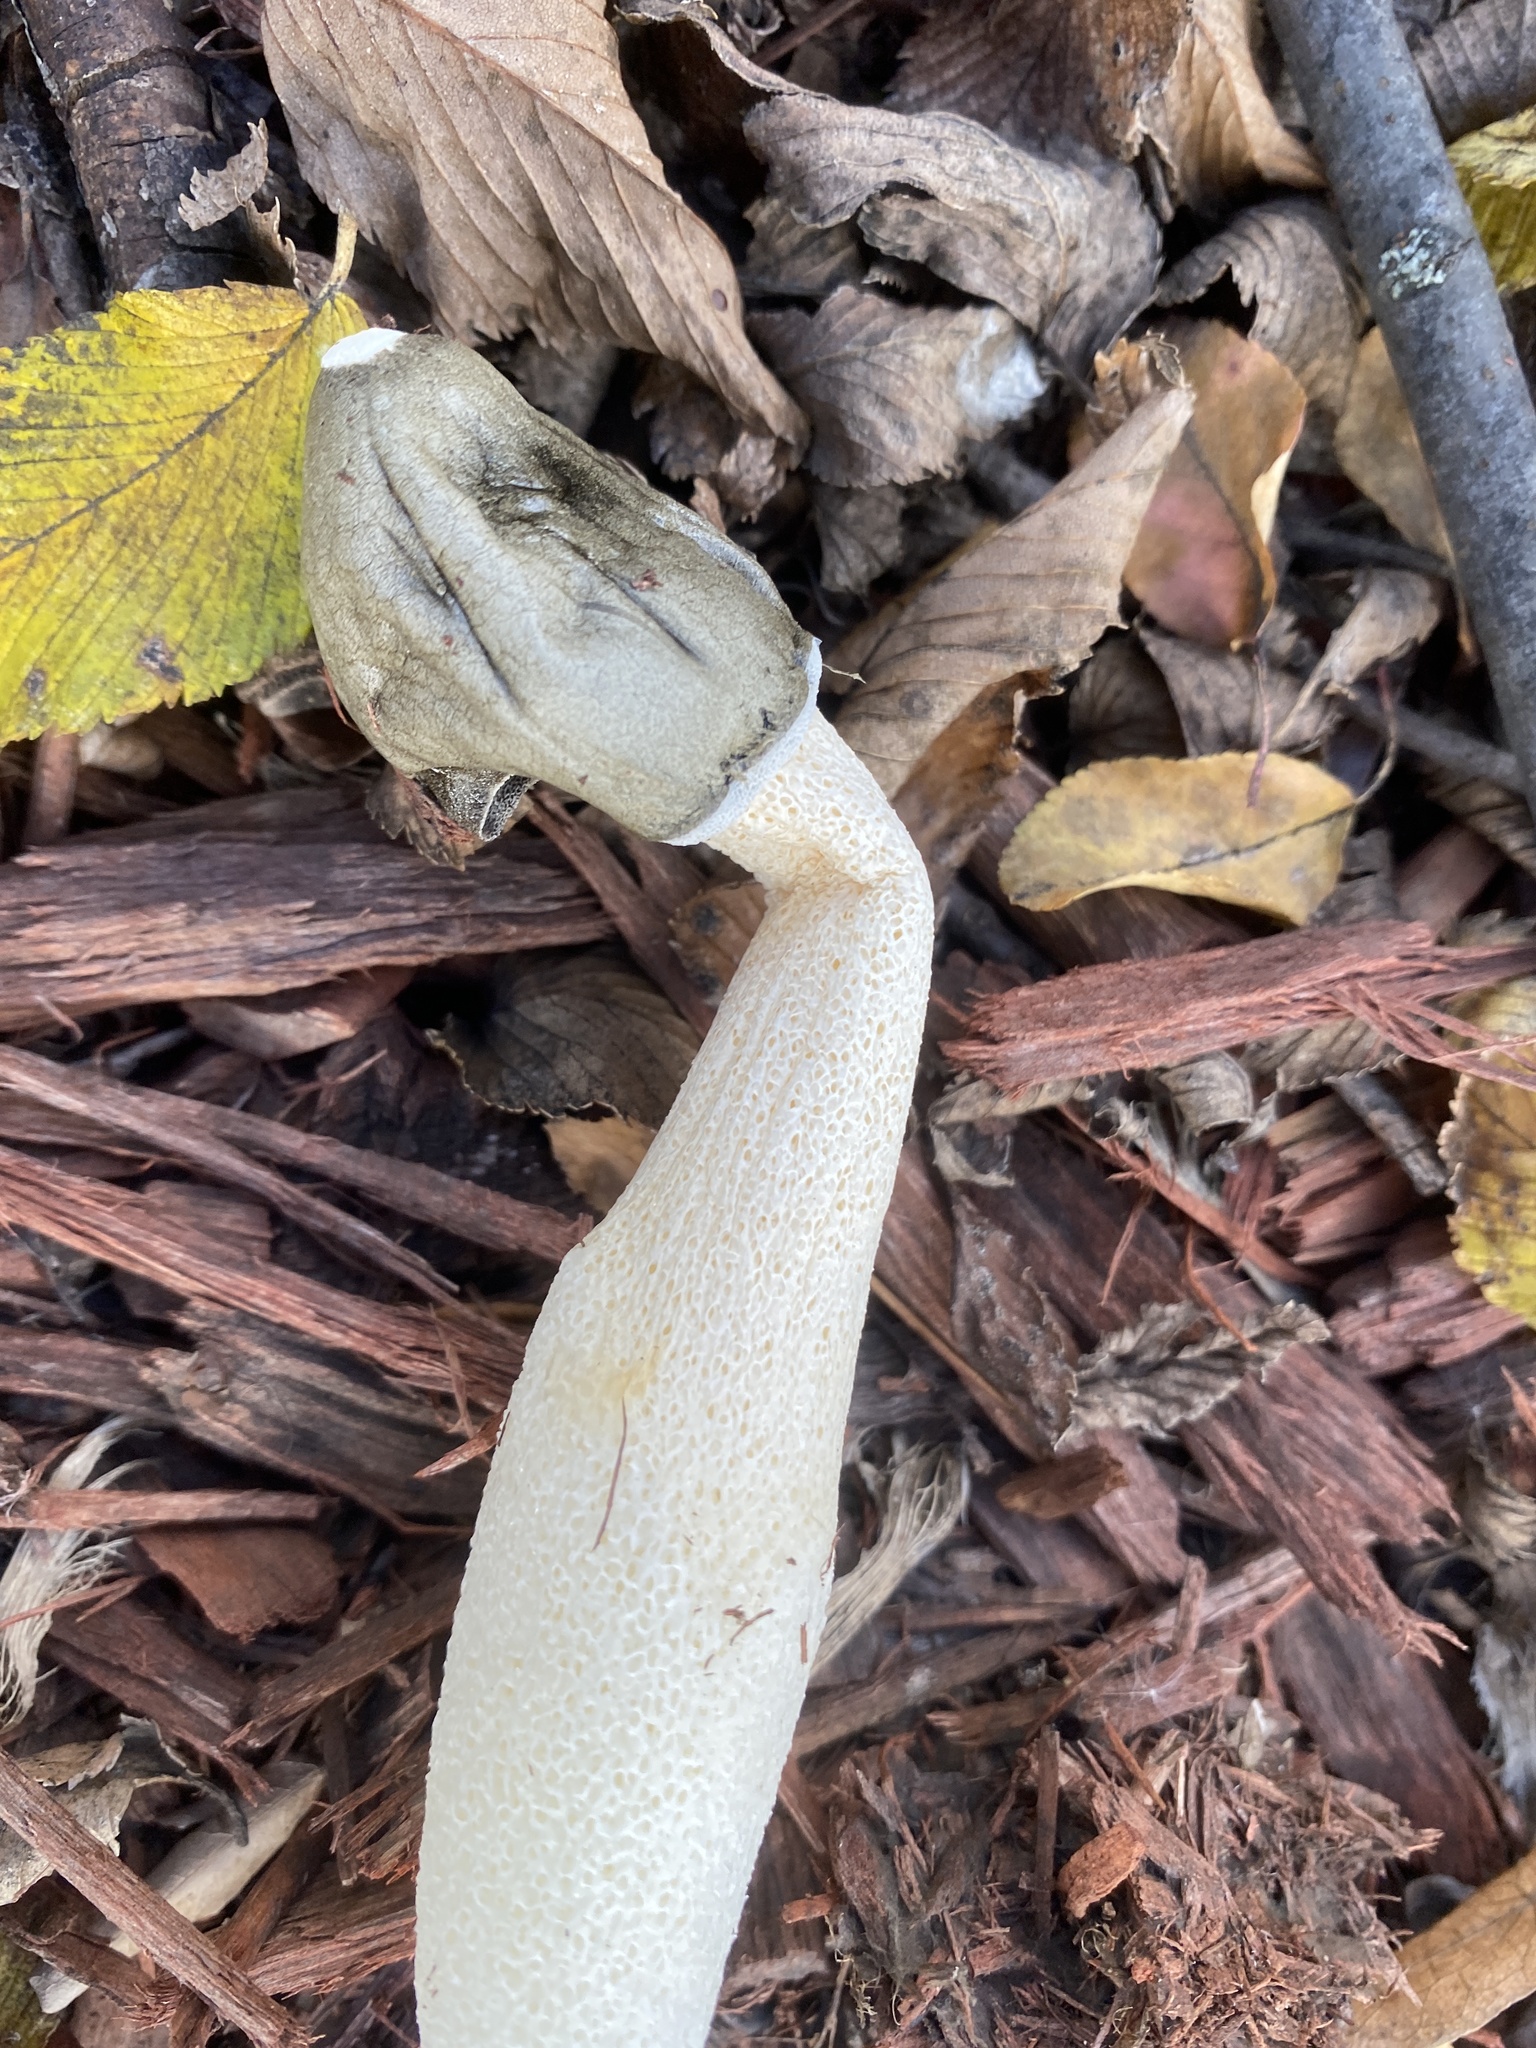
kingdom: Fungi
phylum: Basidiomycota
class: Agaricomycetes
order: Phallales
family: Phallaceae
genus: Phallus
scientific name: Phallus ravenelii
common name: Ravenel's stinkhorn
